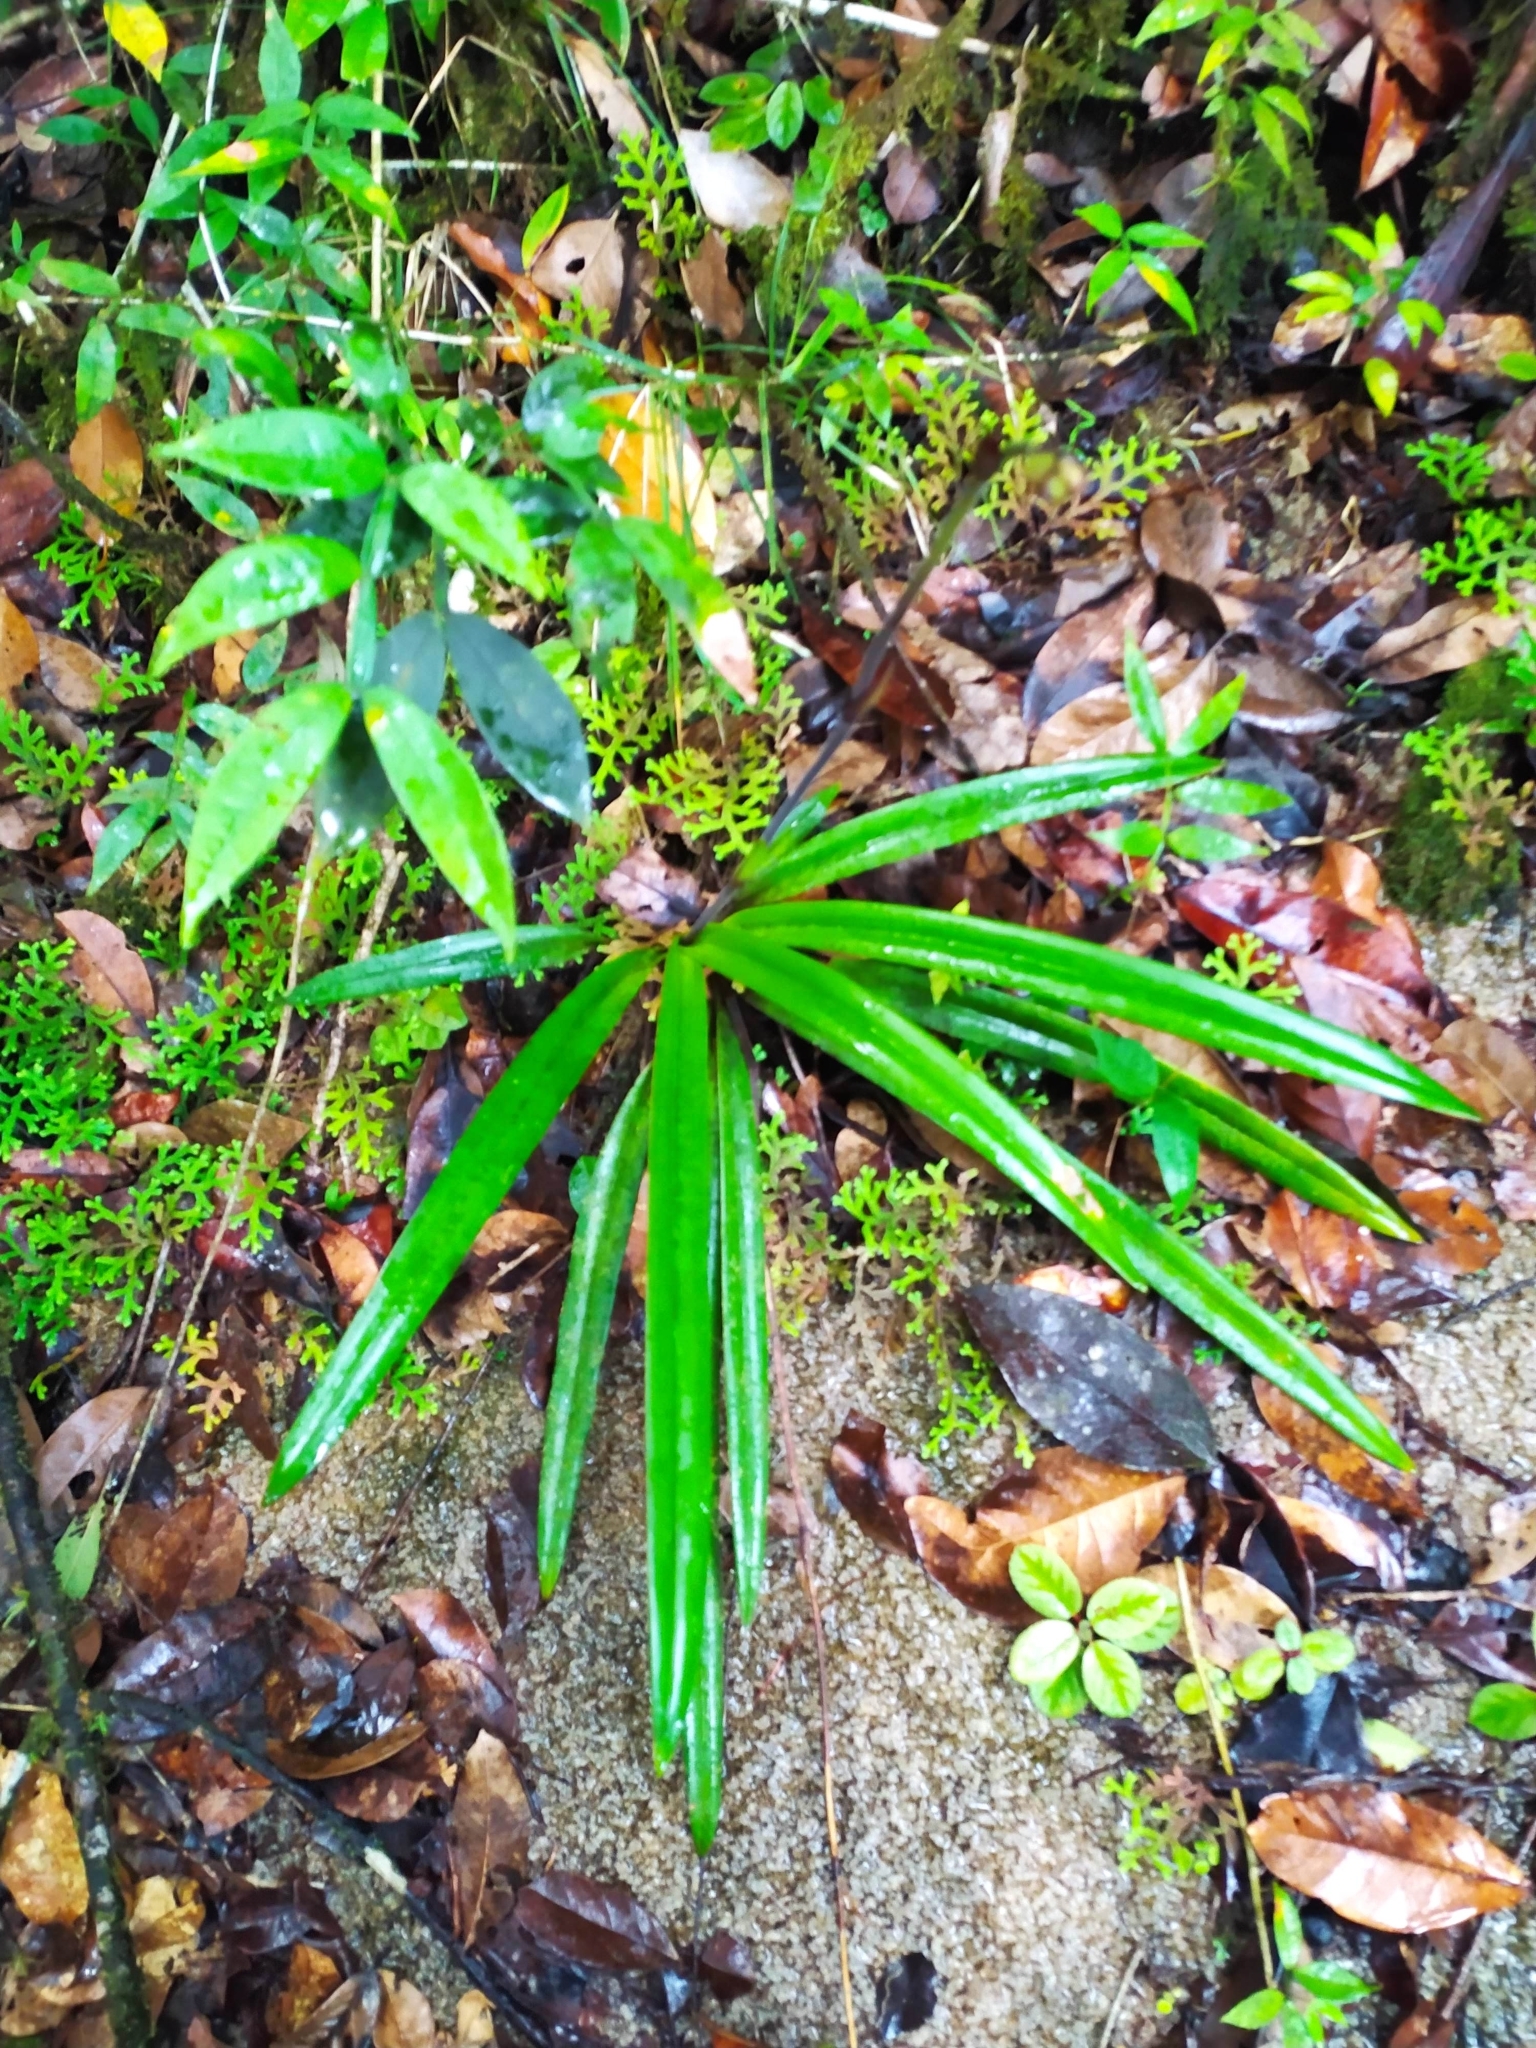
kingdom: Plantae
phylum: Tracheophyta
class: Liliopsida
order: Asparagales
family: Orchidaceae
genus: Phragmipedium
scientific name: Phragmipedium lindleyanum
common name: Lindley's phragmipedium
